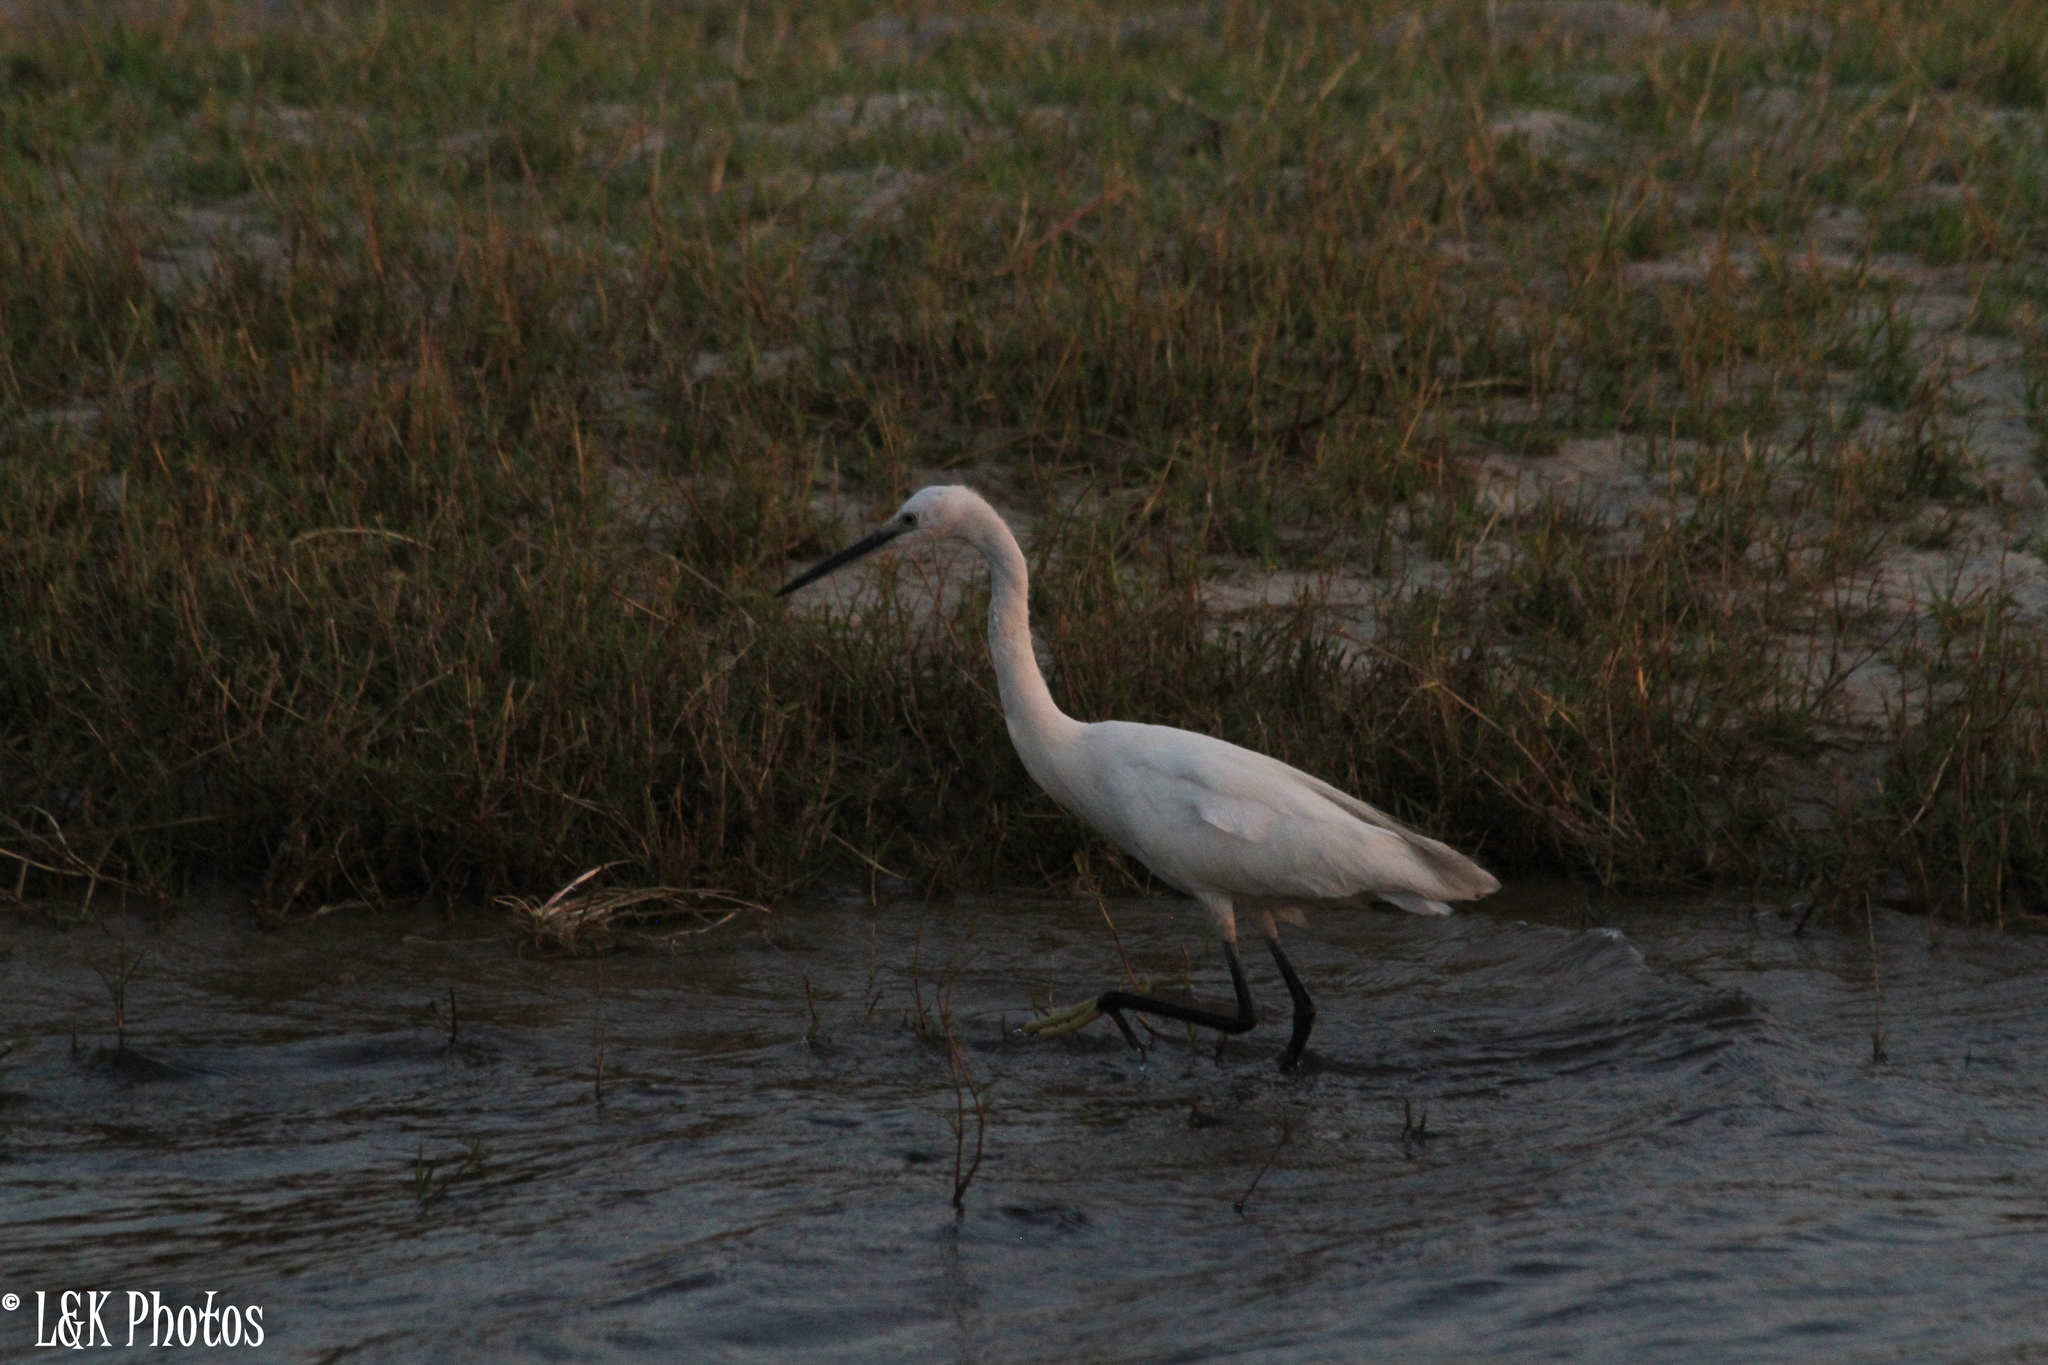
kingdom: Animalia
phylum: Chordata
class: Aves
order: Pelecaniformes
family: Ardeidae
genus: Egretta
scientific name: Egretta garzetta
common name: Little egret
